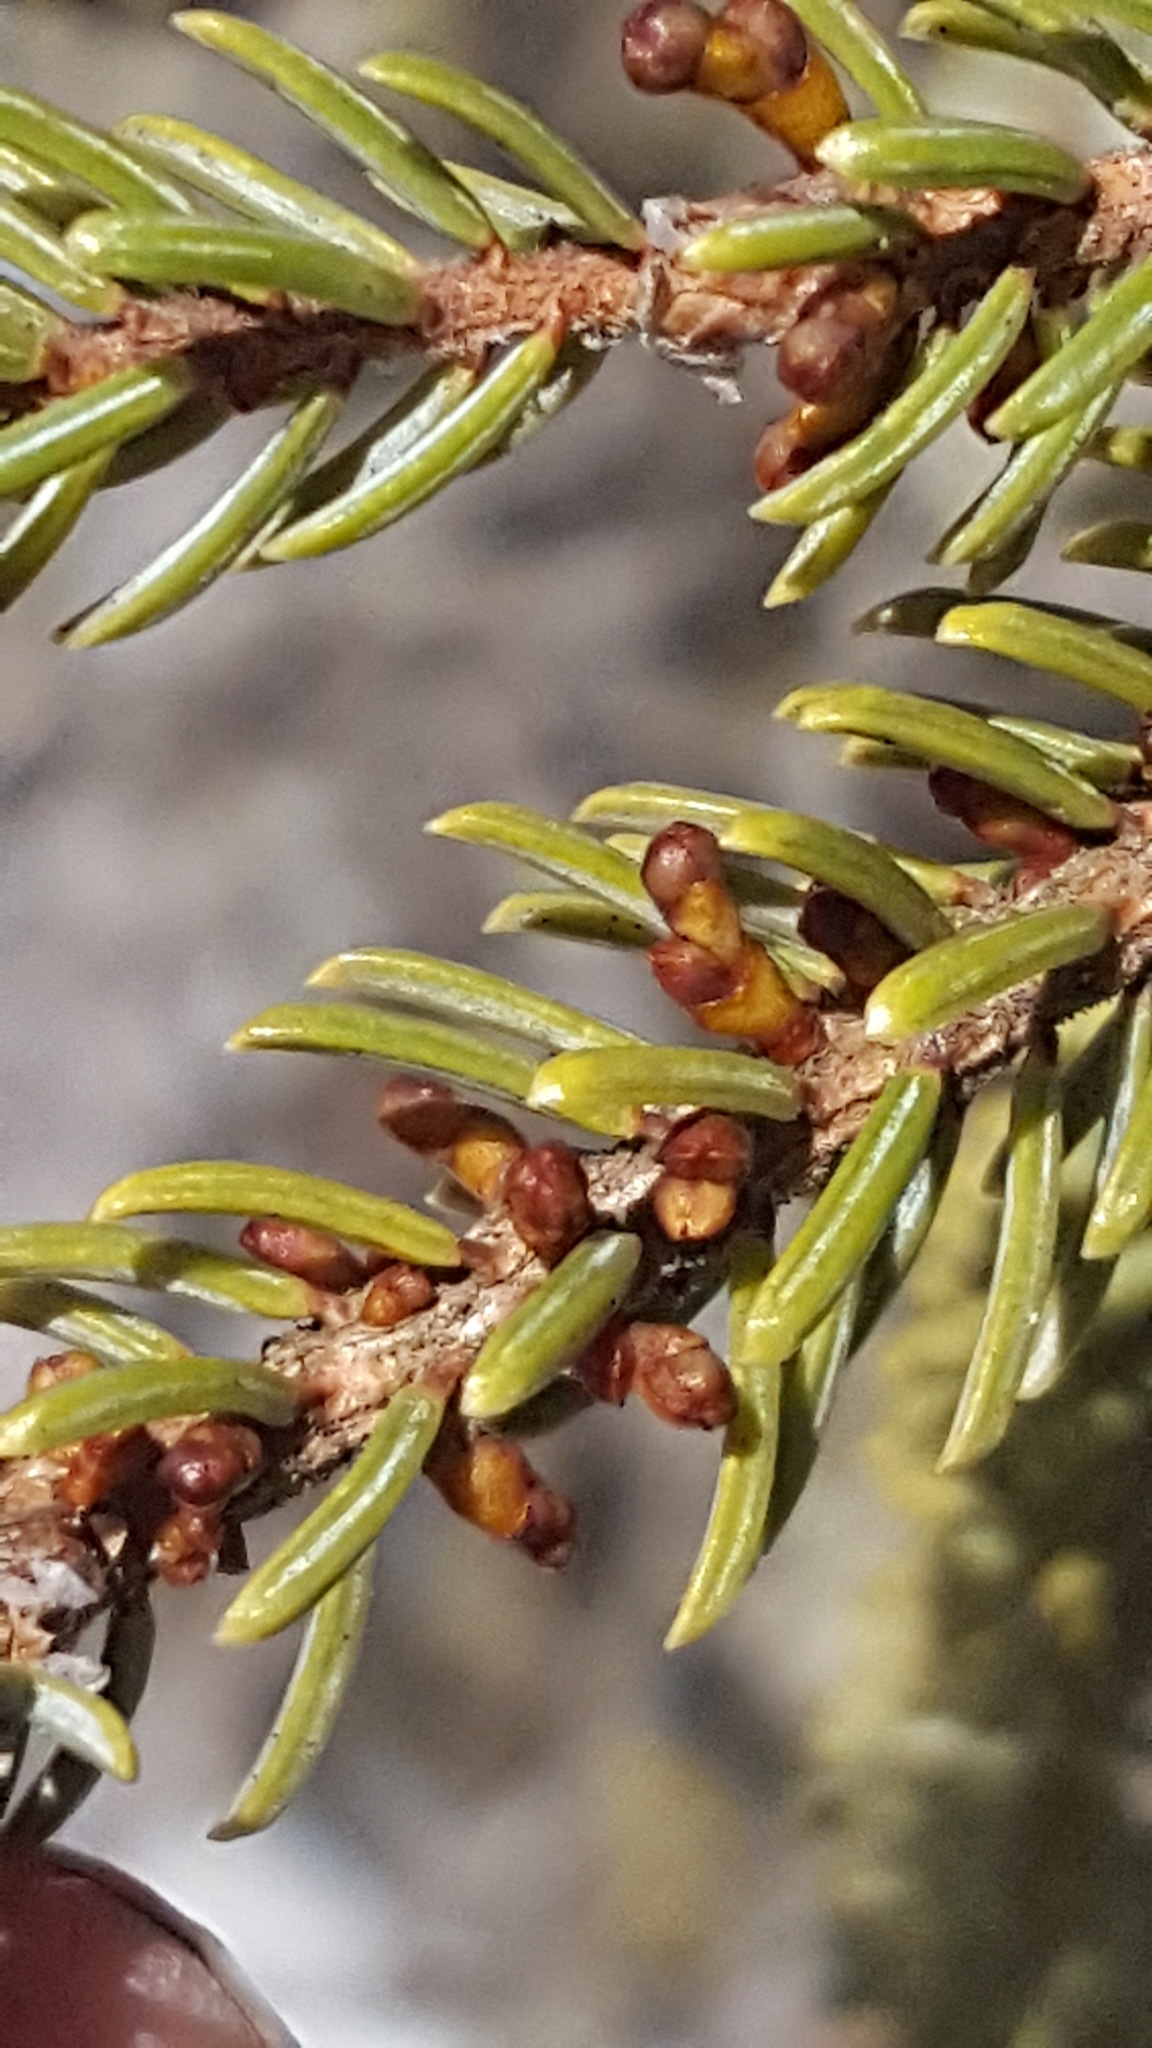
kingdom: Plantae
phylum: Tracheophyta
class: Magnoliopsida
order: Santalales
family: Viscaceae
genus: Arceuthobium
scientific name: Arceuthobium pusillum
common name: Dwarf-mistletoe
